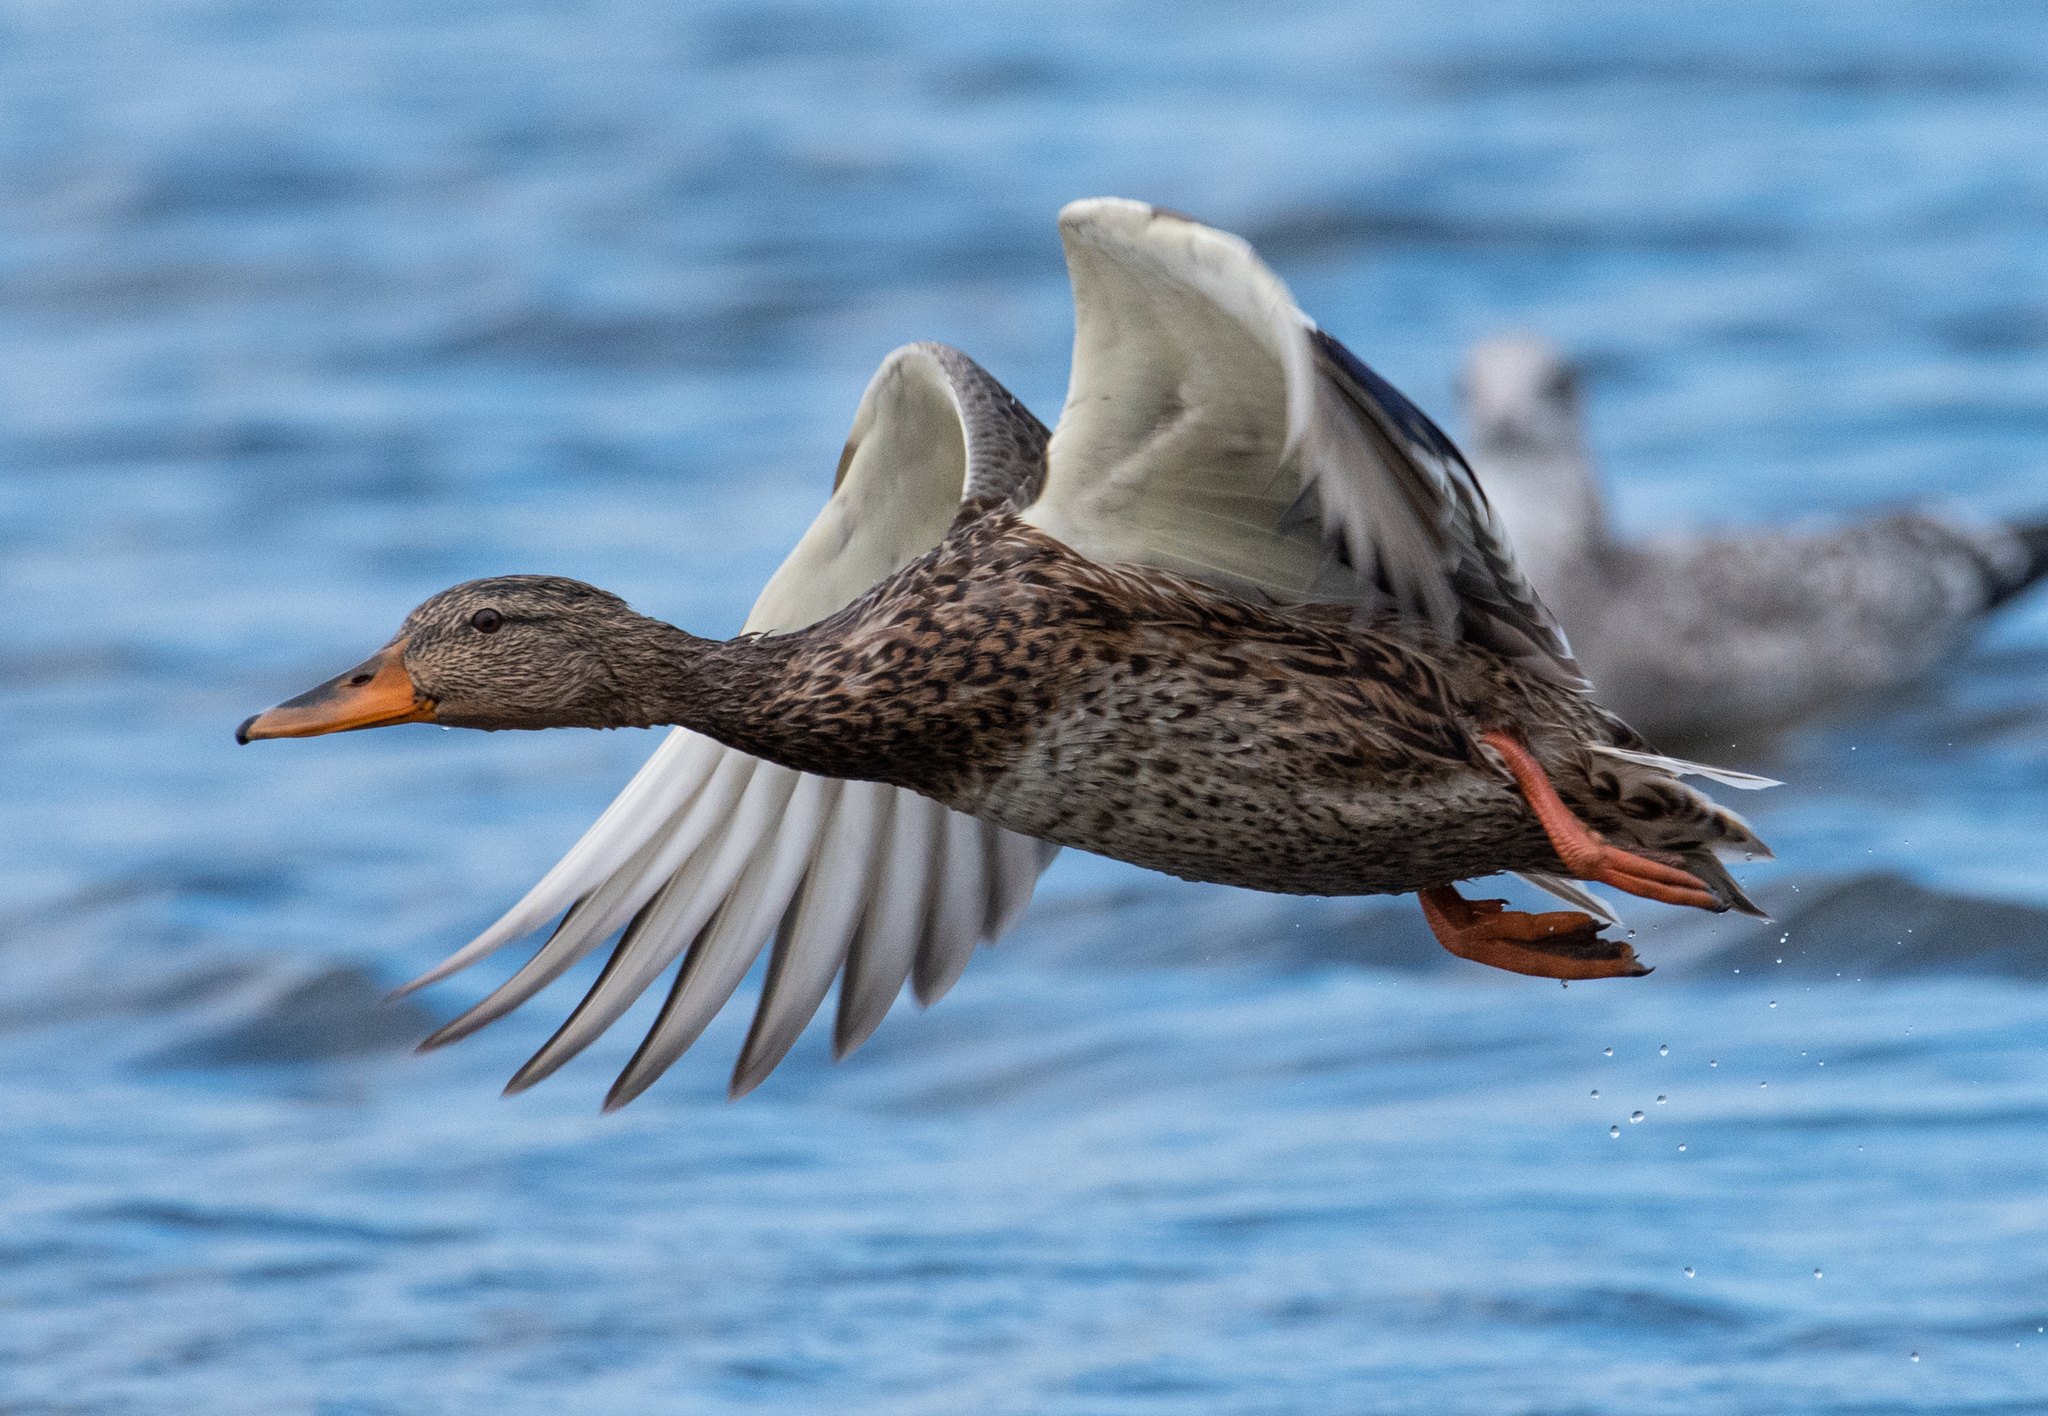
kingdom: Animalia
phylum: Chordata
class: Aves
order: Anseriformes
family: Anatidae
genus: Anas
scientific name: Anas platyrhynchos
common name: Mallard
